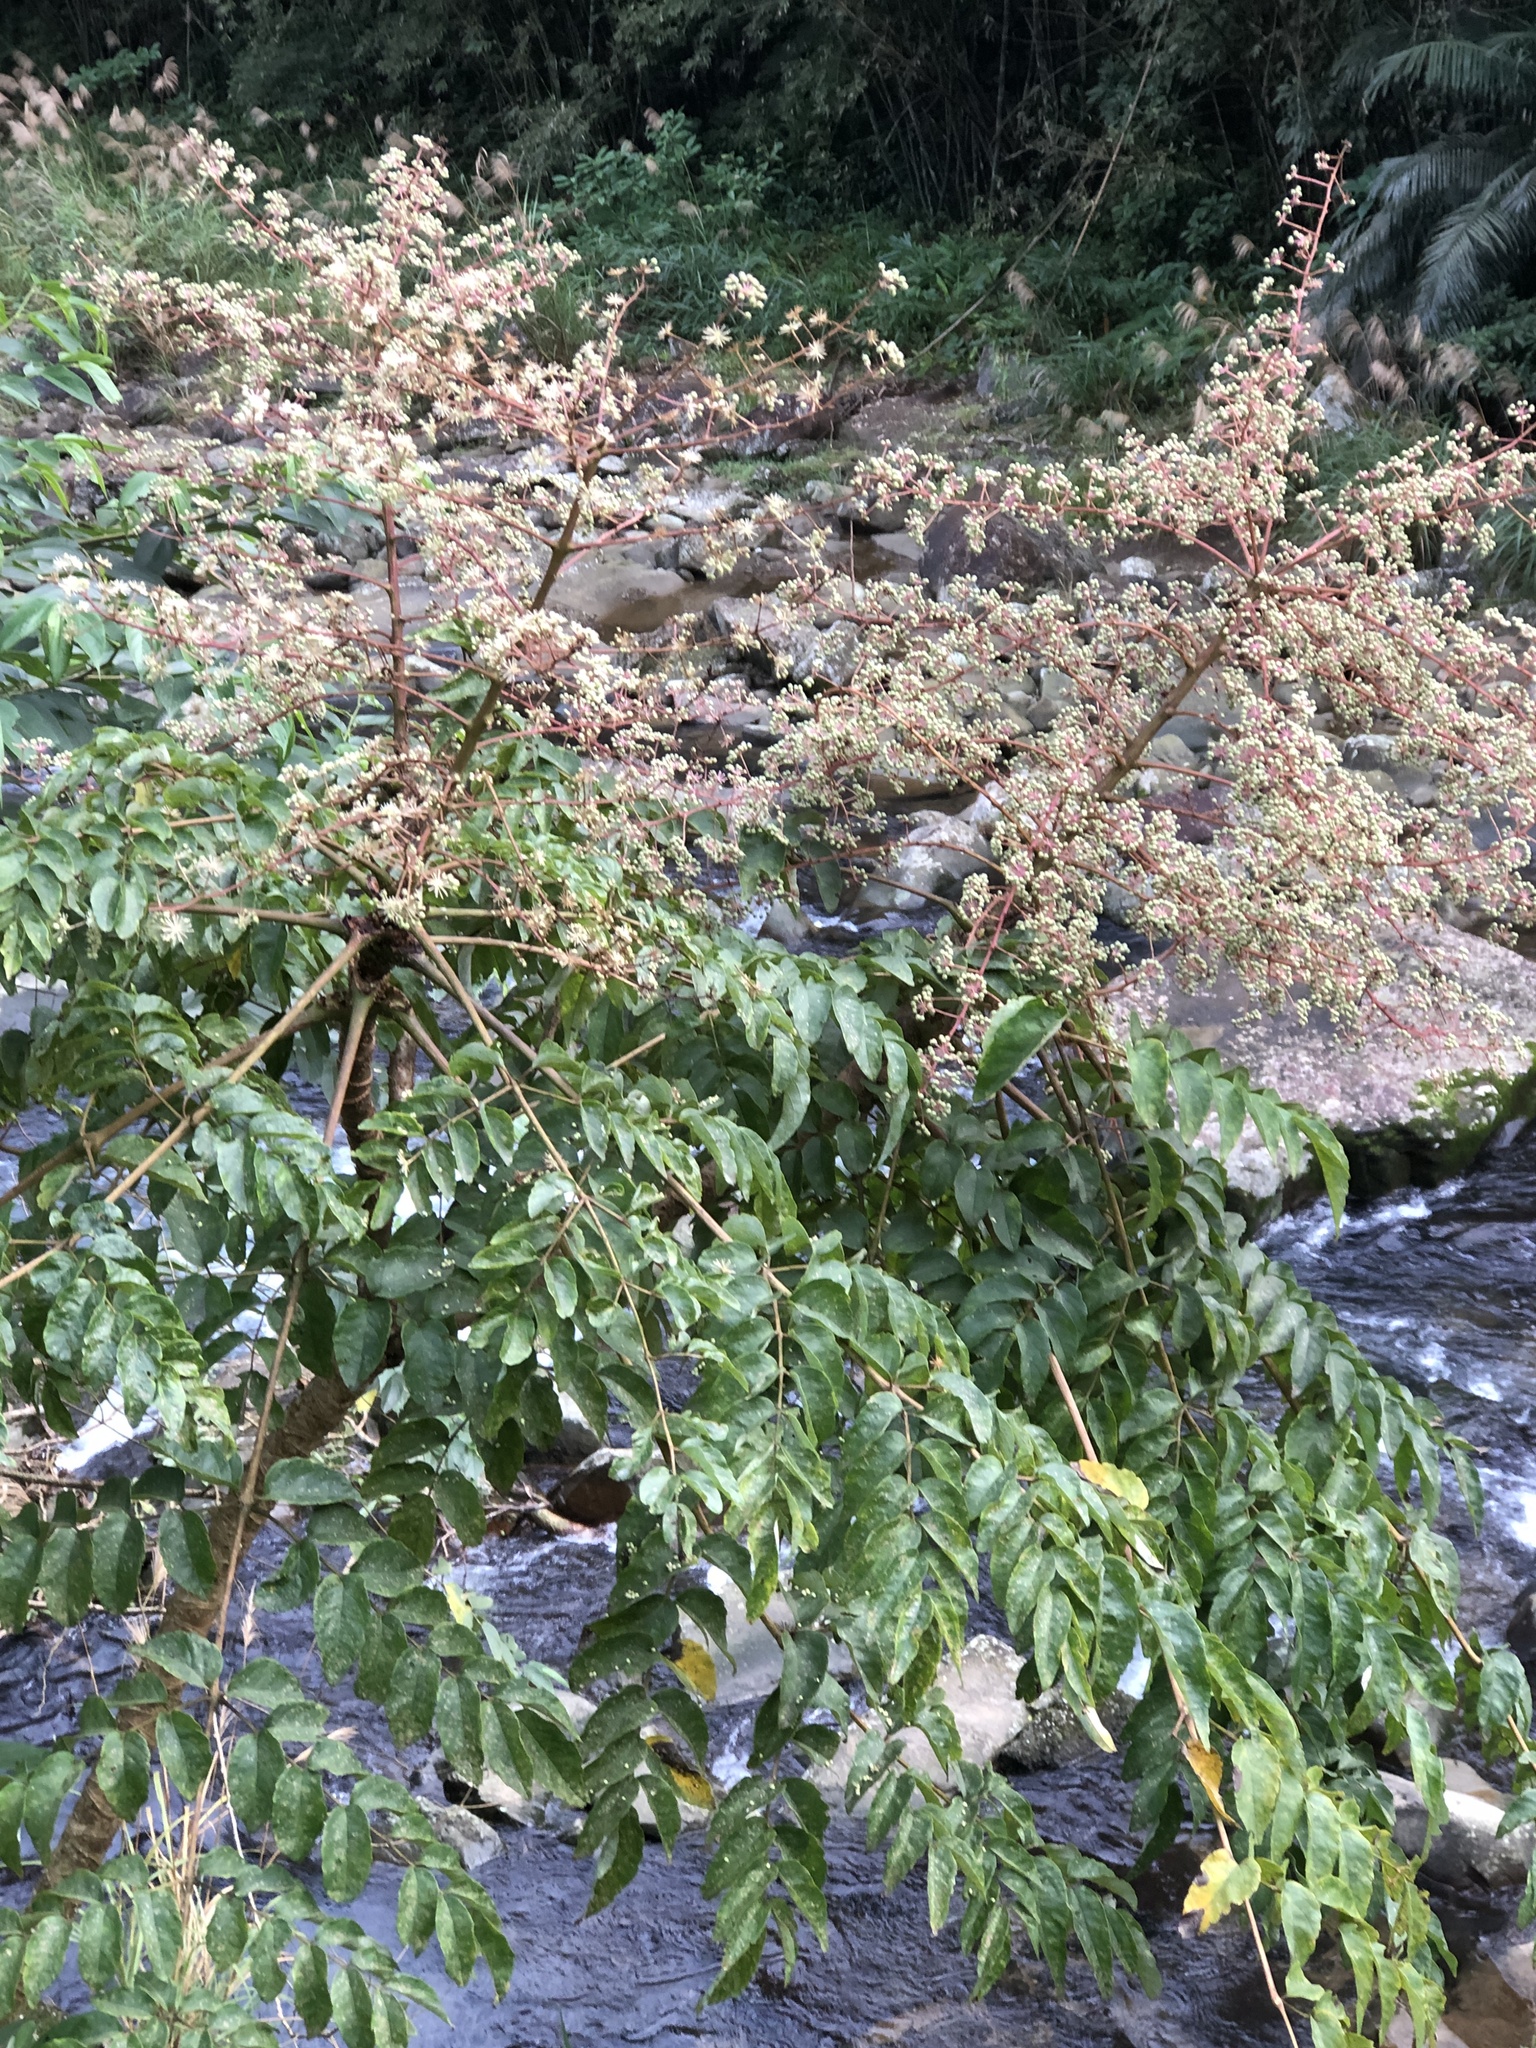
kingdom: Plantae
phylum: Tracheophyta
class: Magnoliopsida
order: Apiales
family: Araliaceae
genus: Aralia
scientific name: Aralia bipinnata
